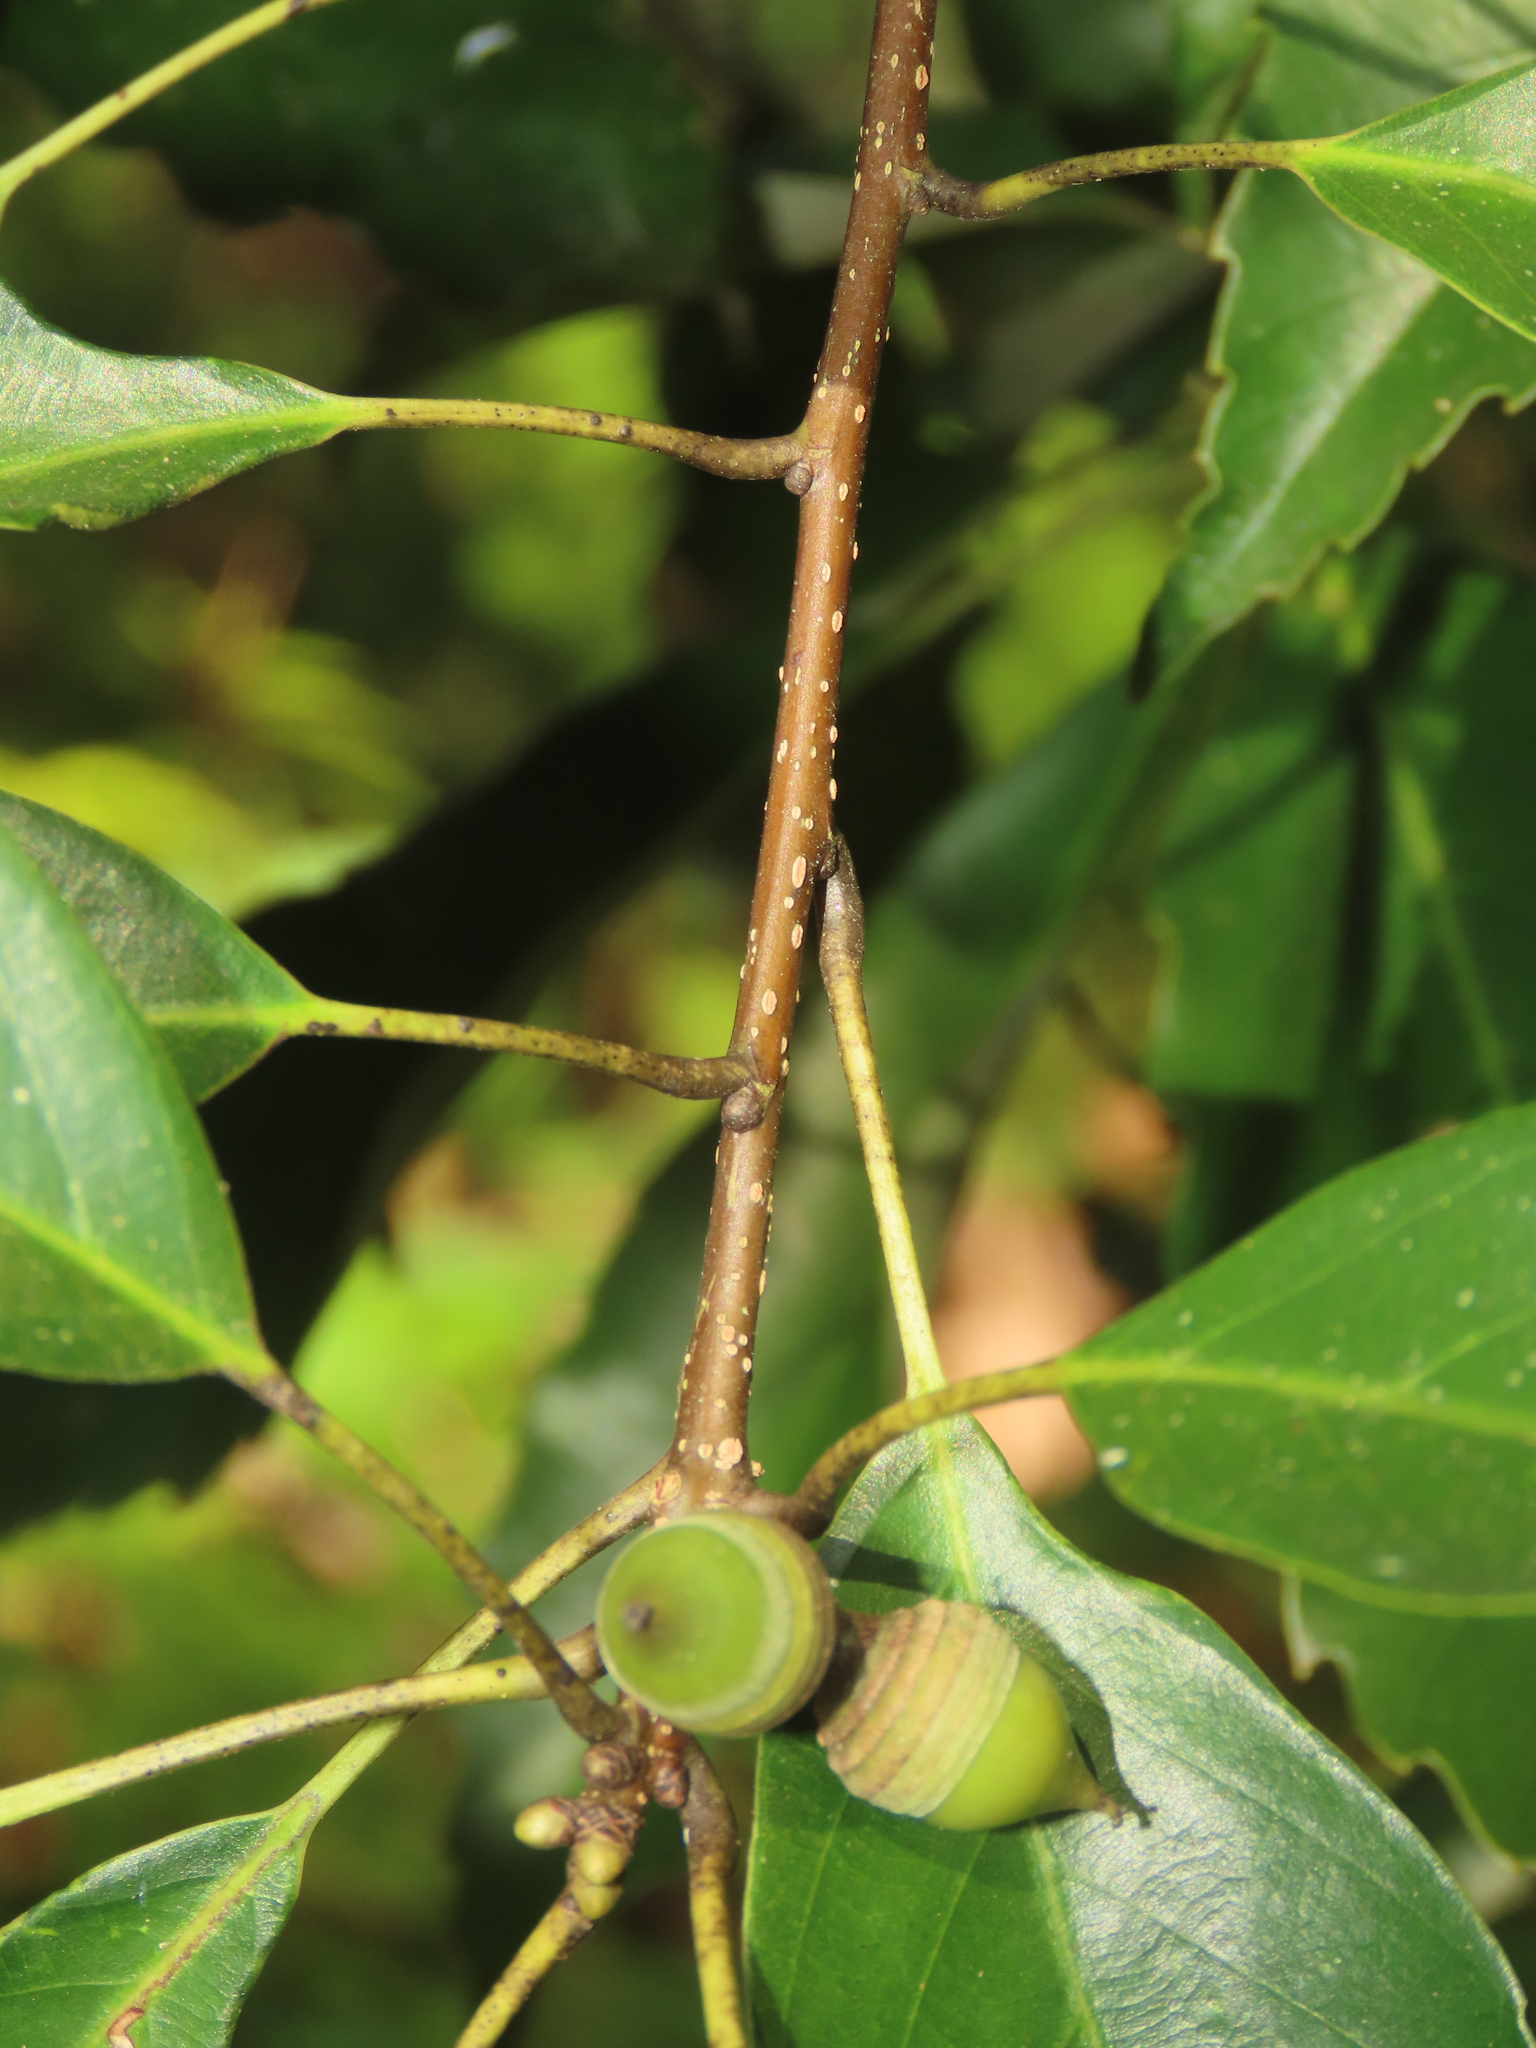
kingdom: Plantae
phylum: Tracheophyta
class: Magnoliopsida
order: Fagales
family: Fagaceae
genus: Quercus
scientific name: Quercus glauca
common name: Ring-cup oak
